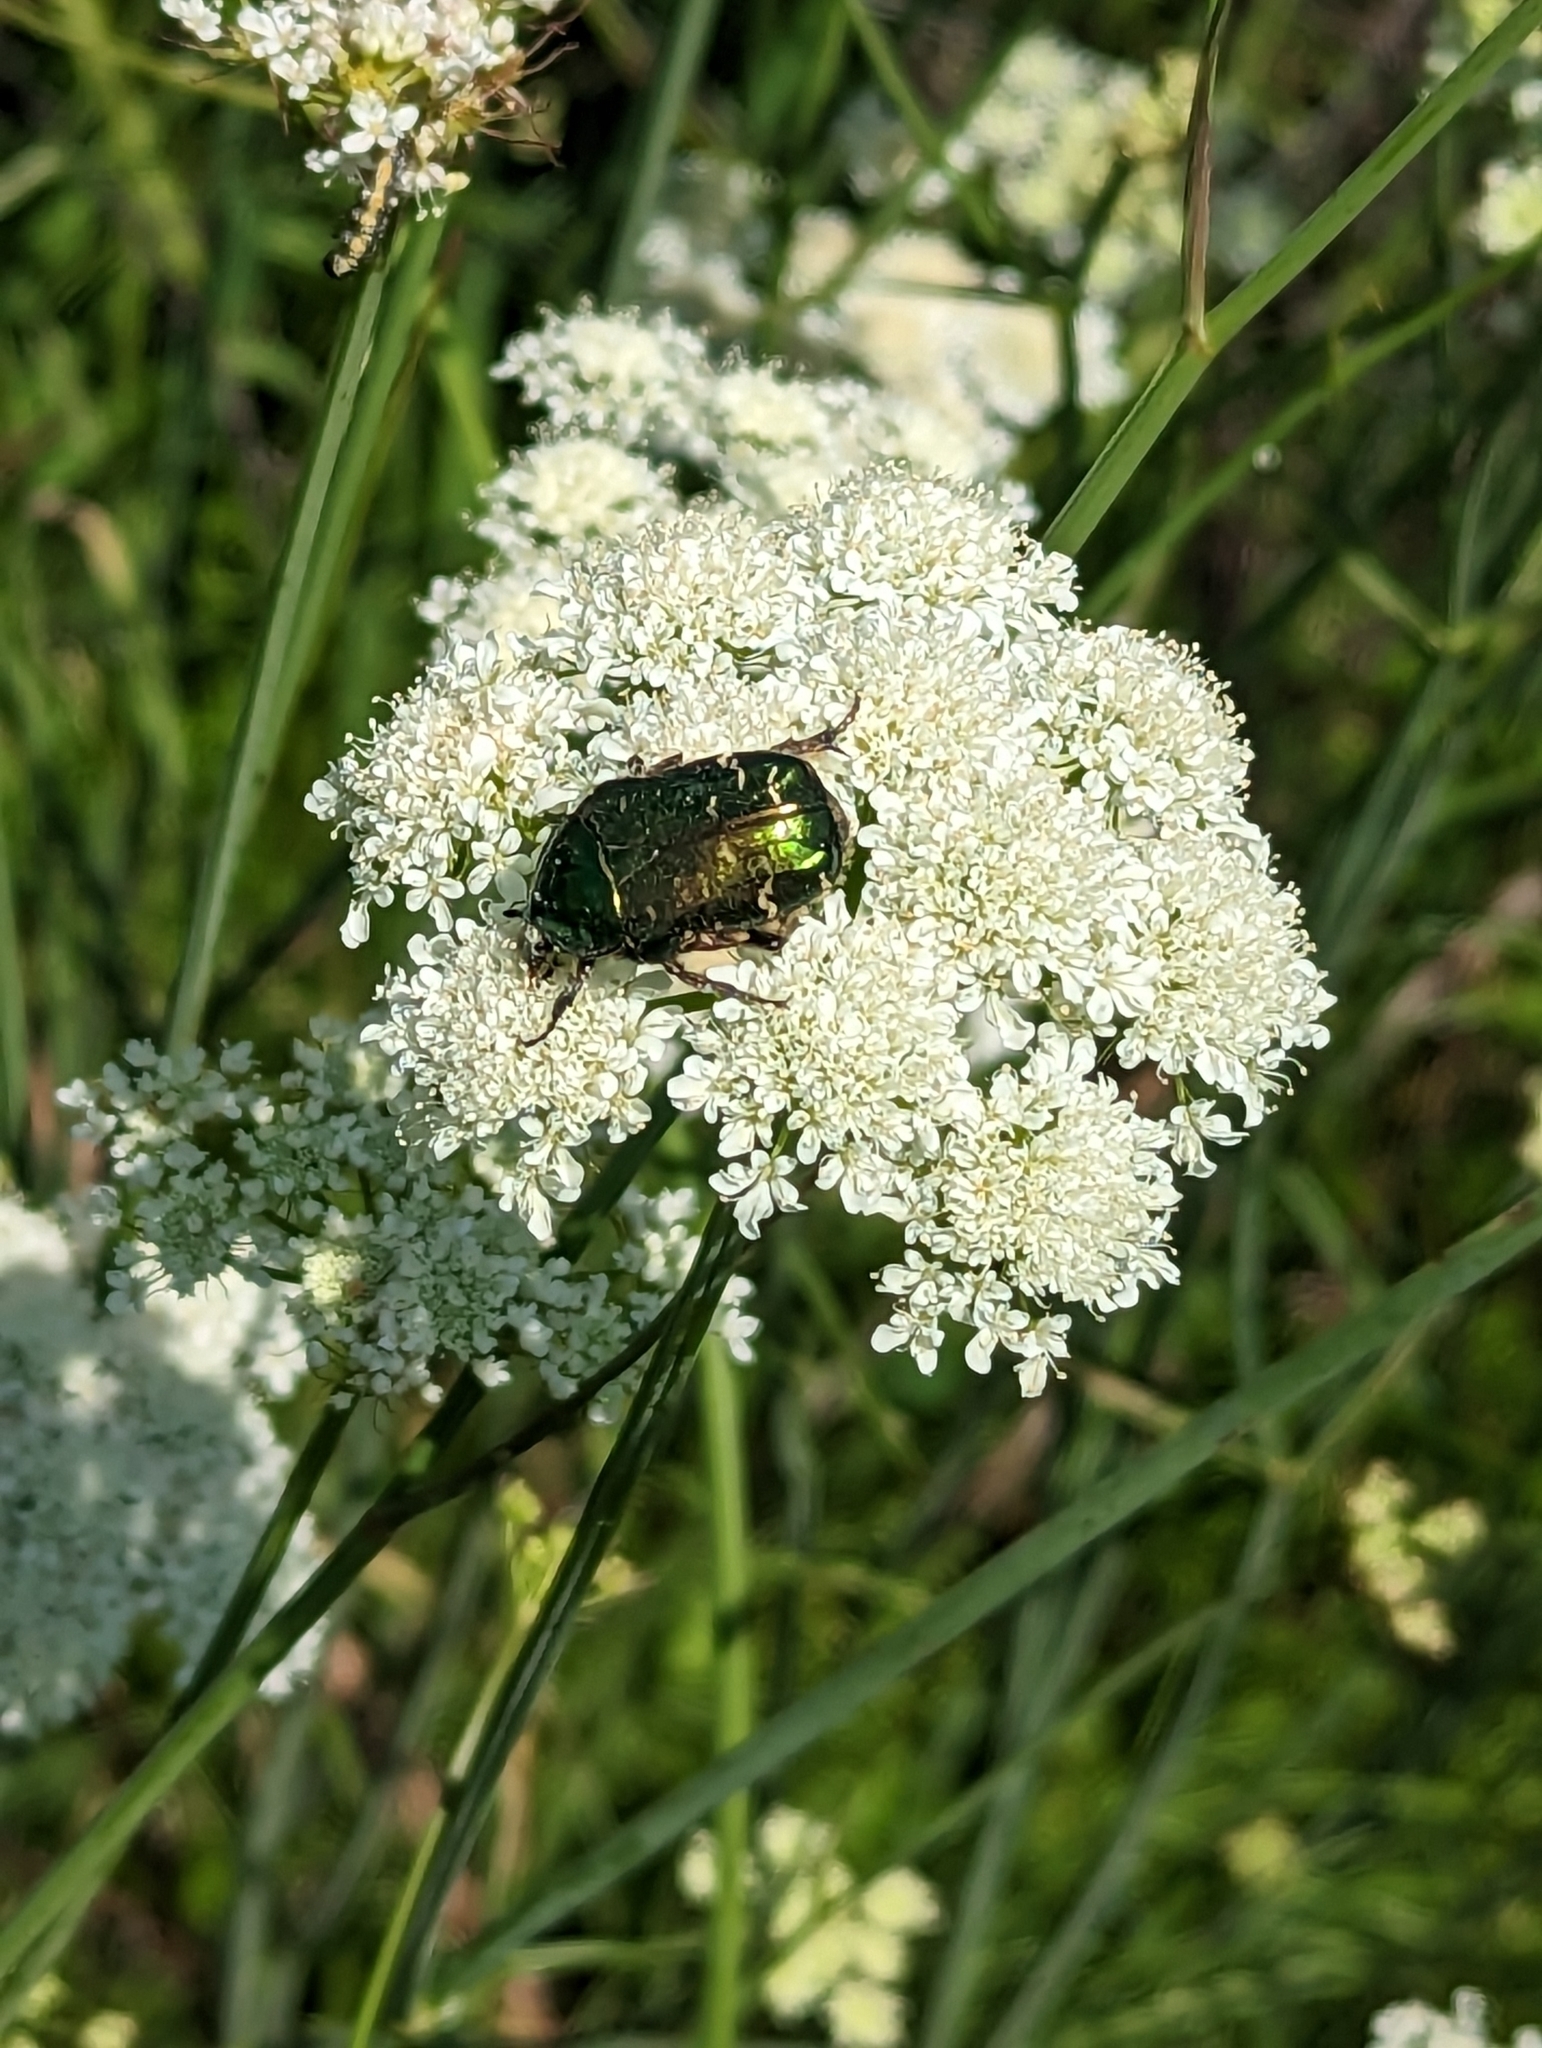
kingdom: Animalia
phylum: Arthropoda
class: Insecta
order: Coleoptera
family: Scarabaeidae
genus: Cetonia
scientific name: Cetonia aurata
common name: Rose chafer
